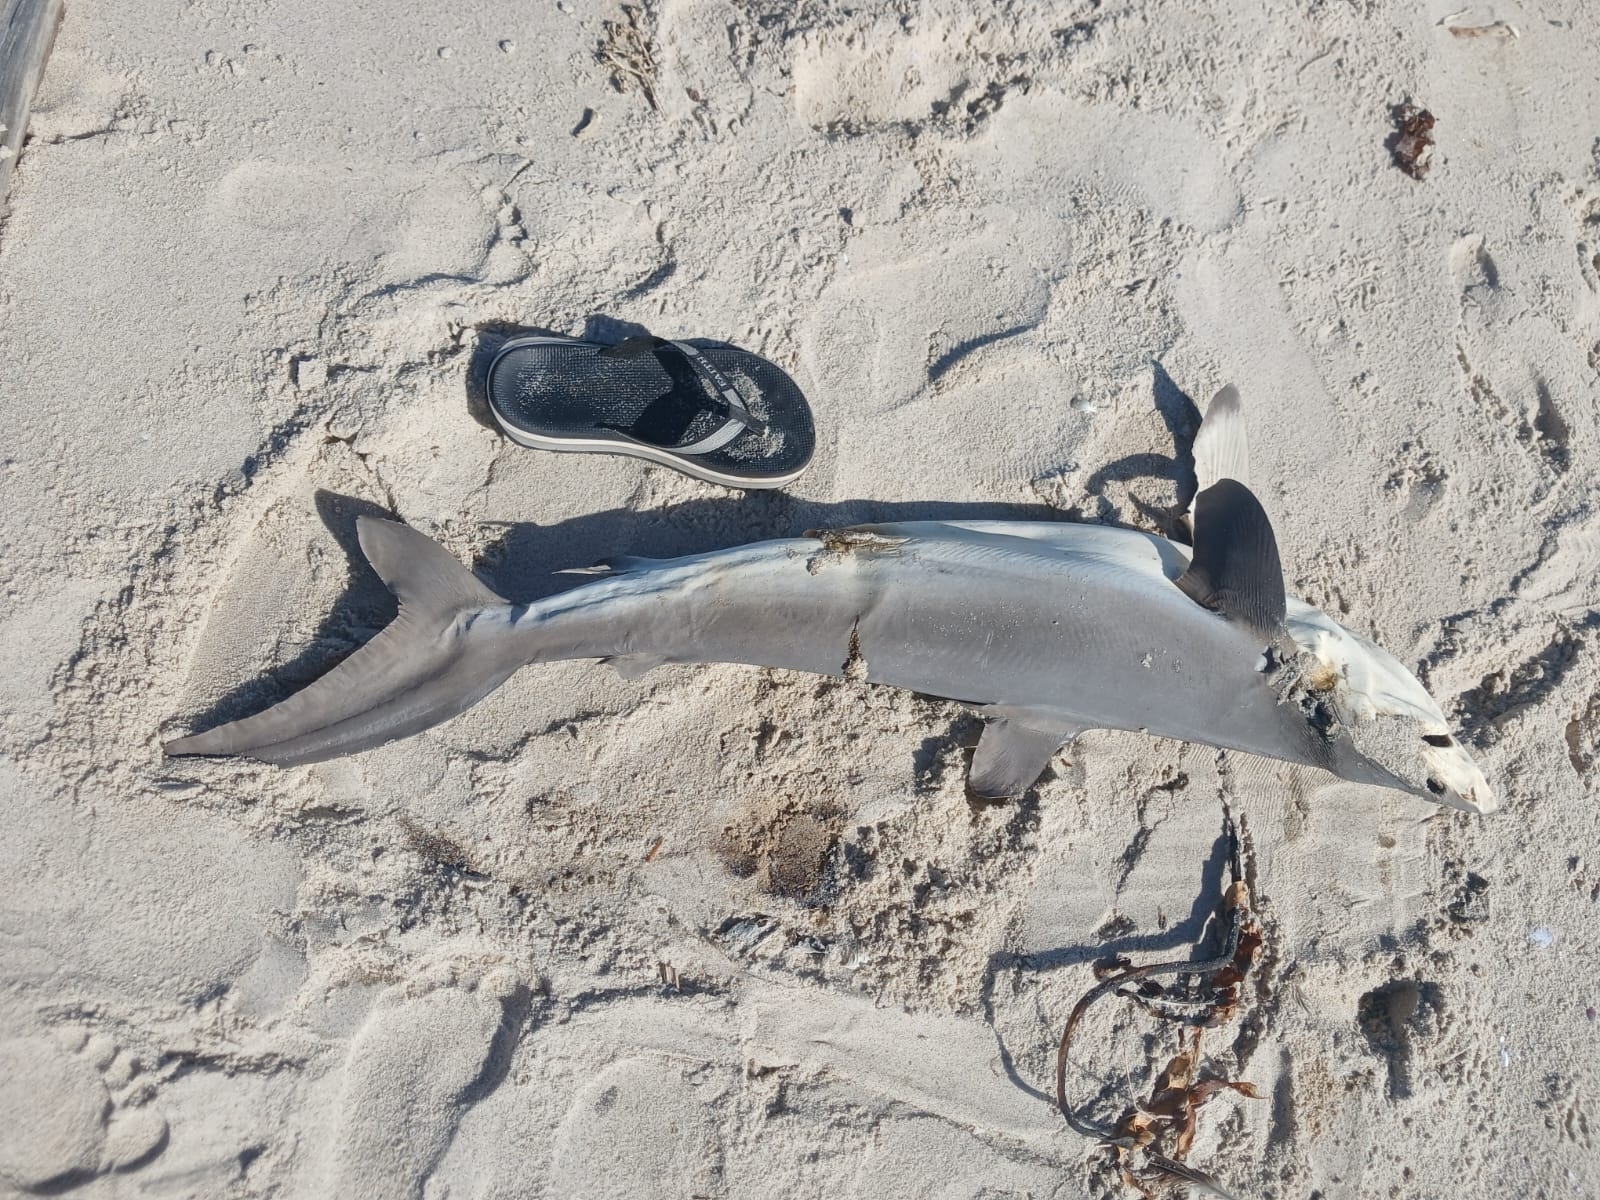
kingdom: Animalia
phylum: Chordata
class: Elasmobranchii
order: Carcharhiniformes
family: Carcharhinidae
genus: Carcharhinus
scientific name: Carcharhinus falciformis
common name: Silky shark
